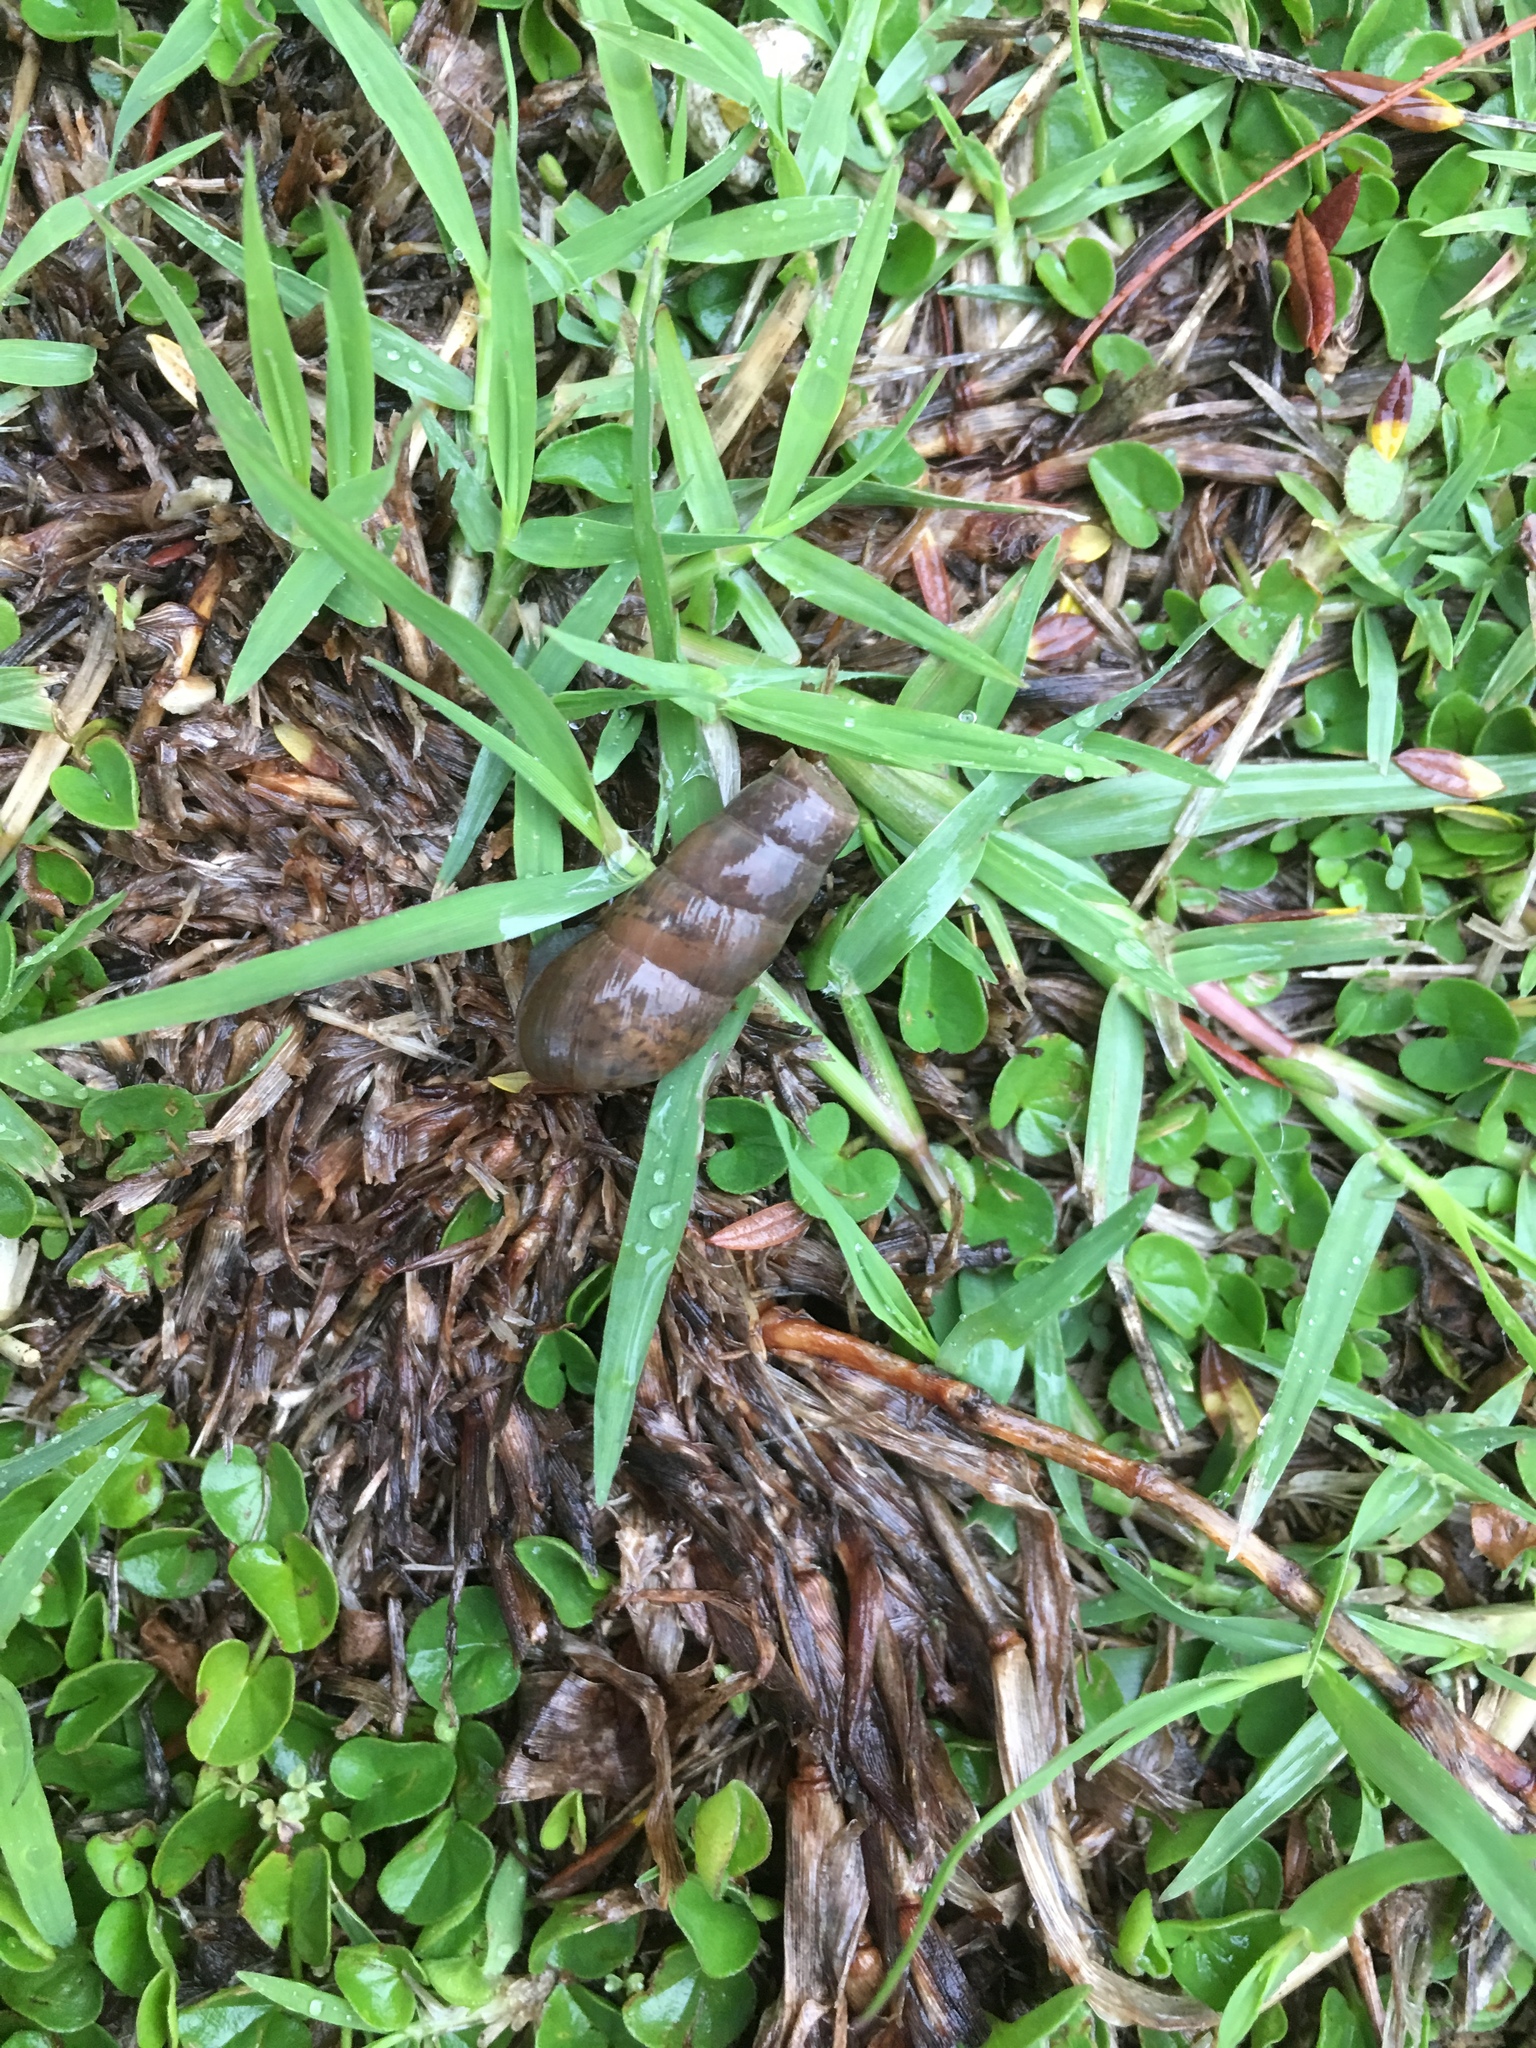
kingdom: Animalia
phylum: Mollusca
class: Gastropoda
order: Stylommatophora
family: Achatinidae
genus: Rumina
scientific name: Rumina decollata
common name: Decollate snail
